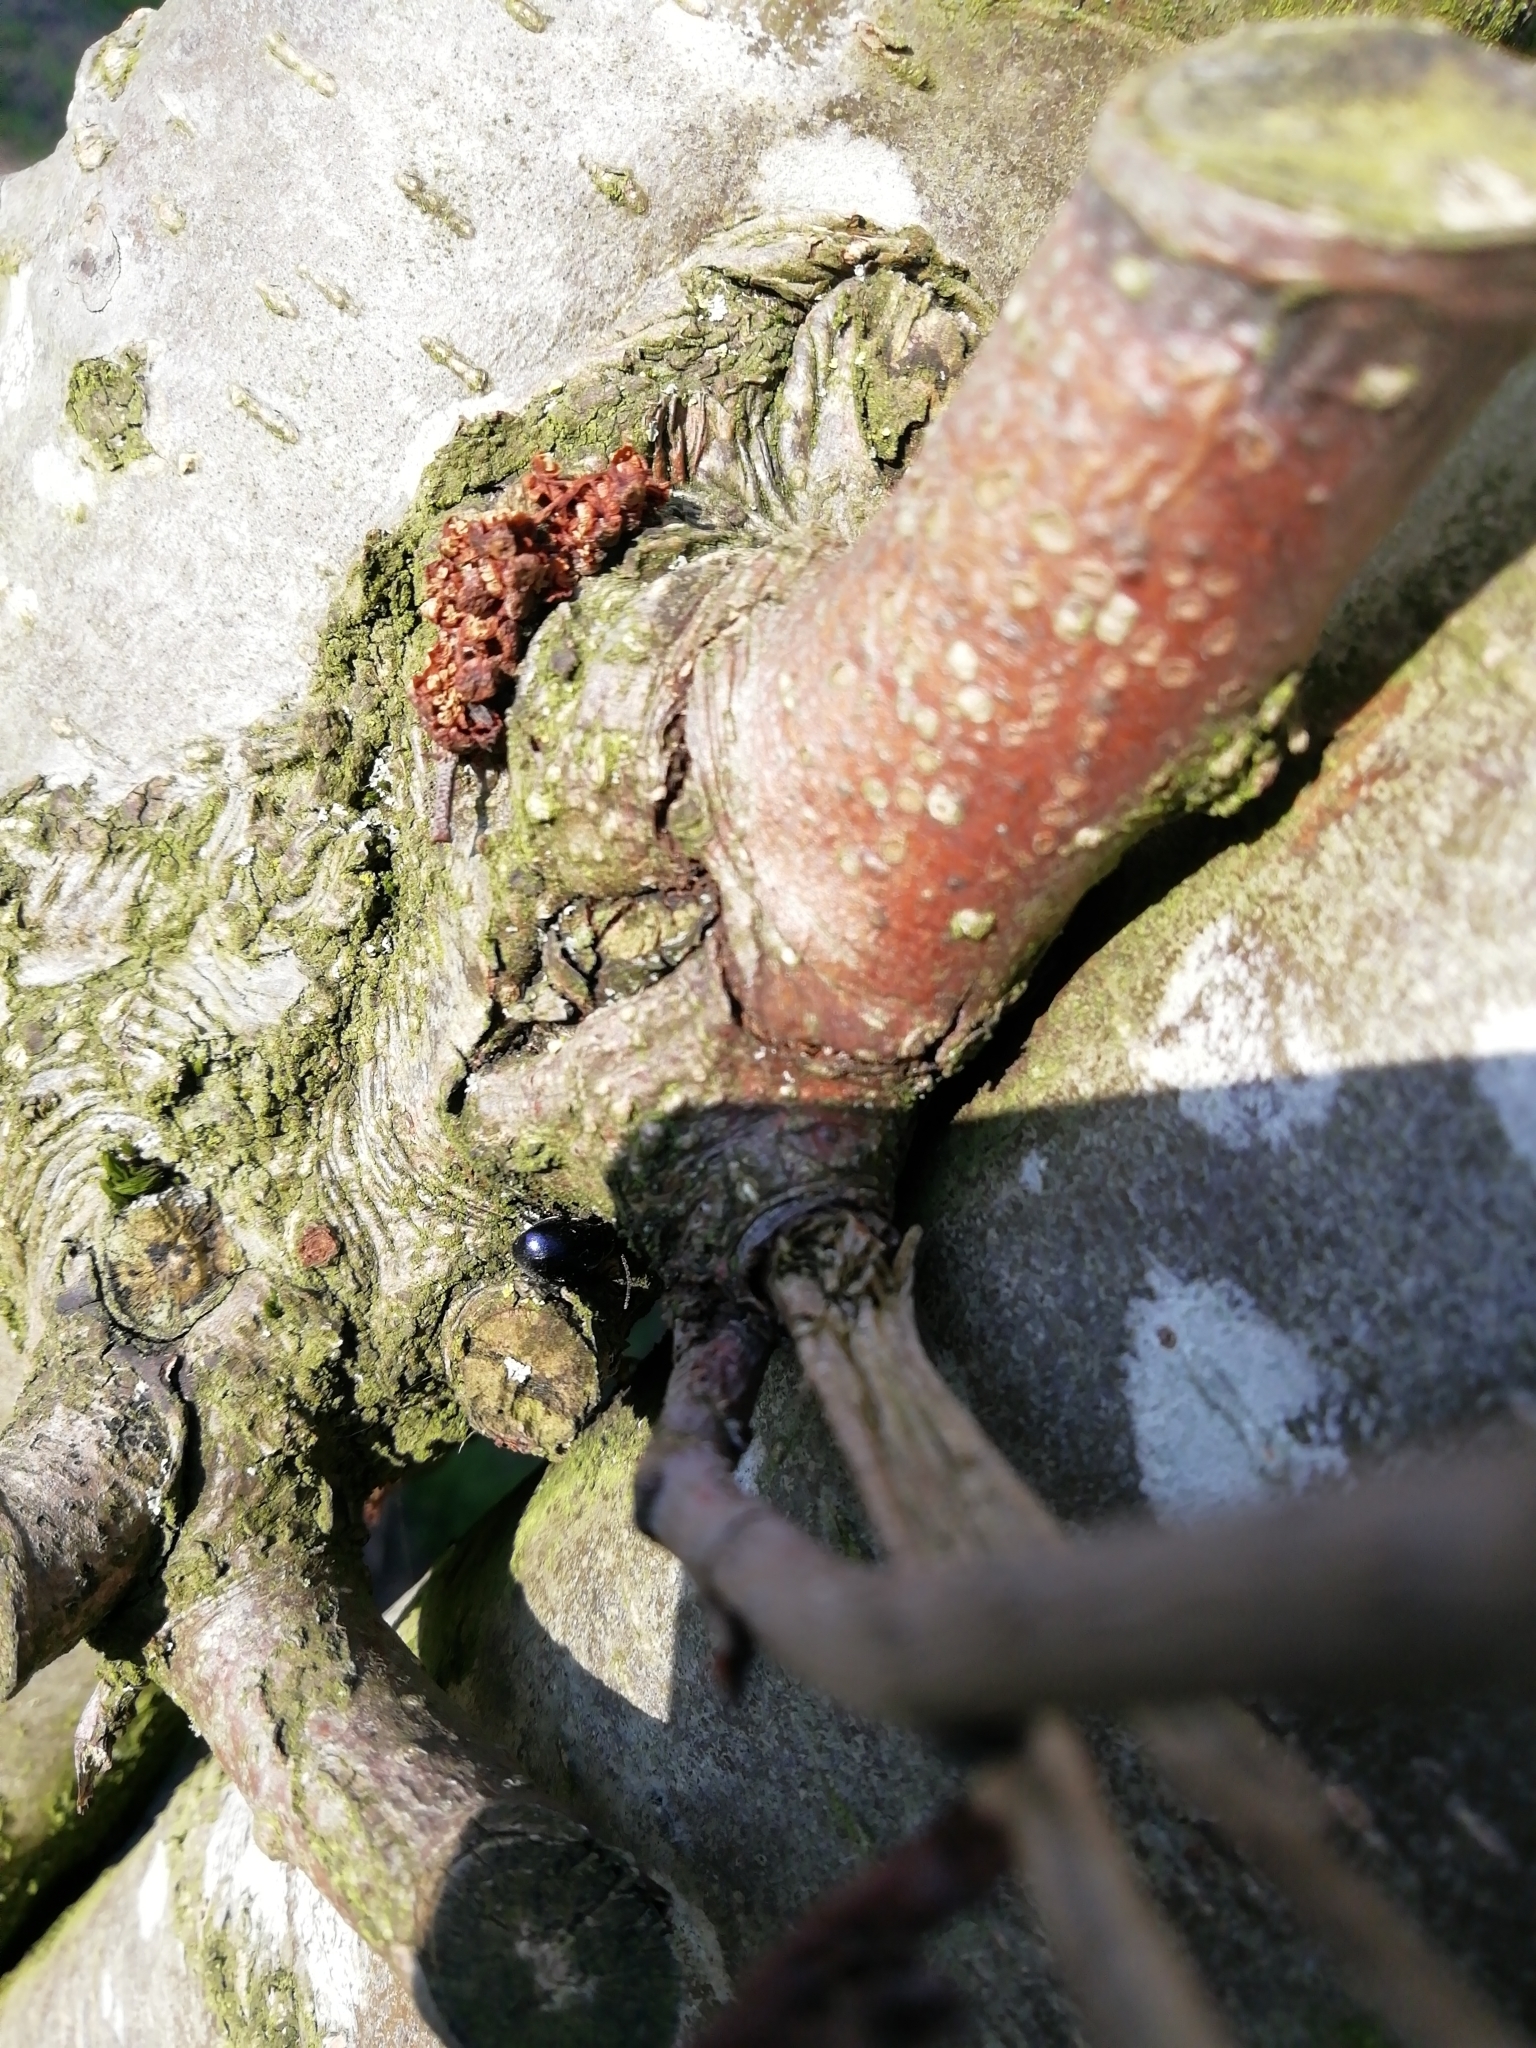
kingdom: Animalia
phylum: Arthropoda
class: Insecta
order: Coleoptera
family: Chrysomelidae
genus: Agelastica
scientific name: Agelastica alni
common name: Alder leaf beetle
